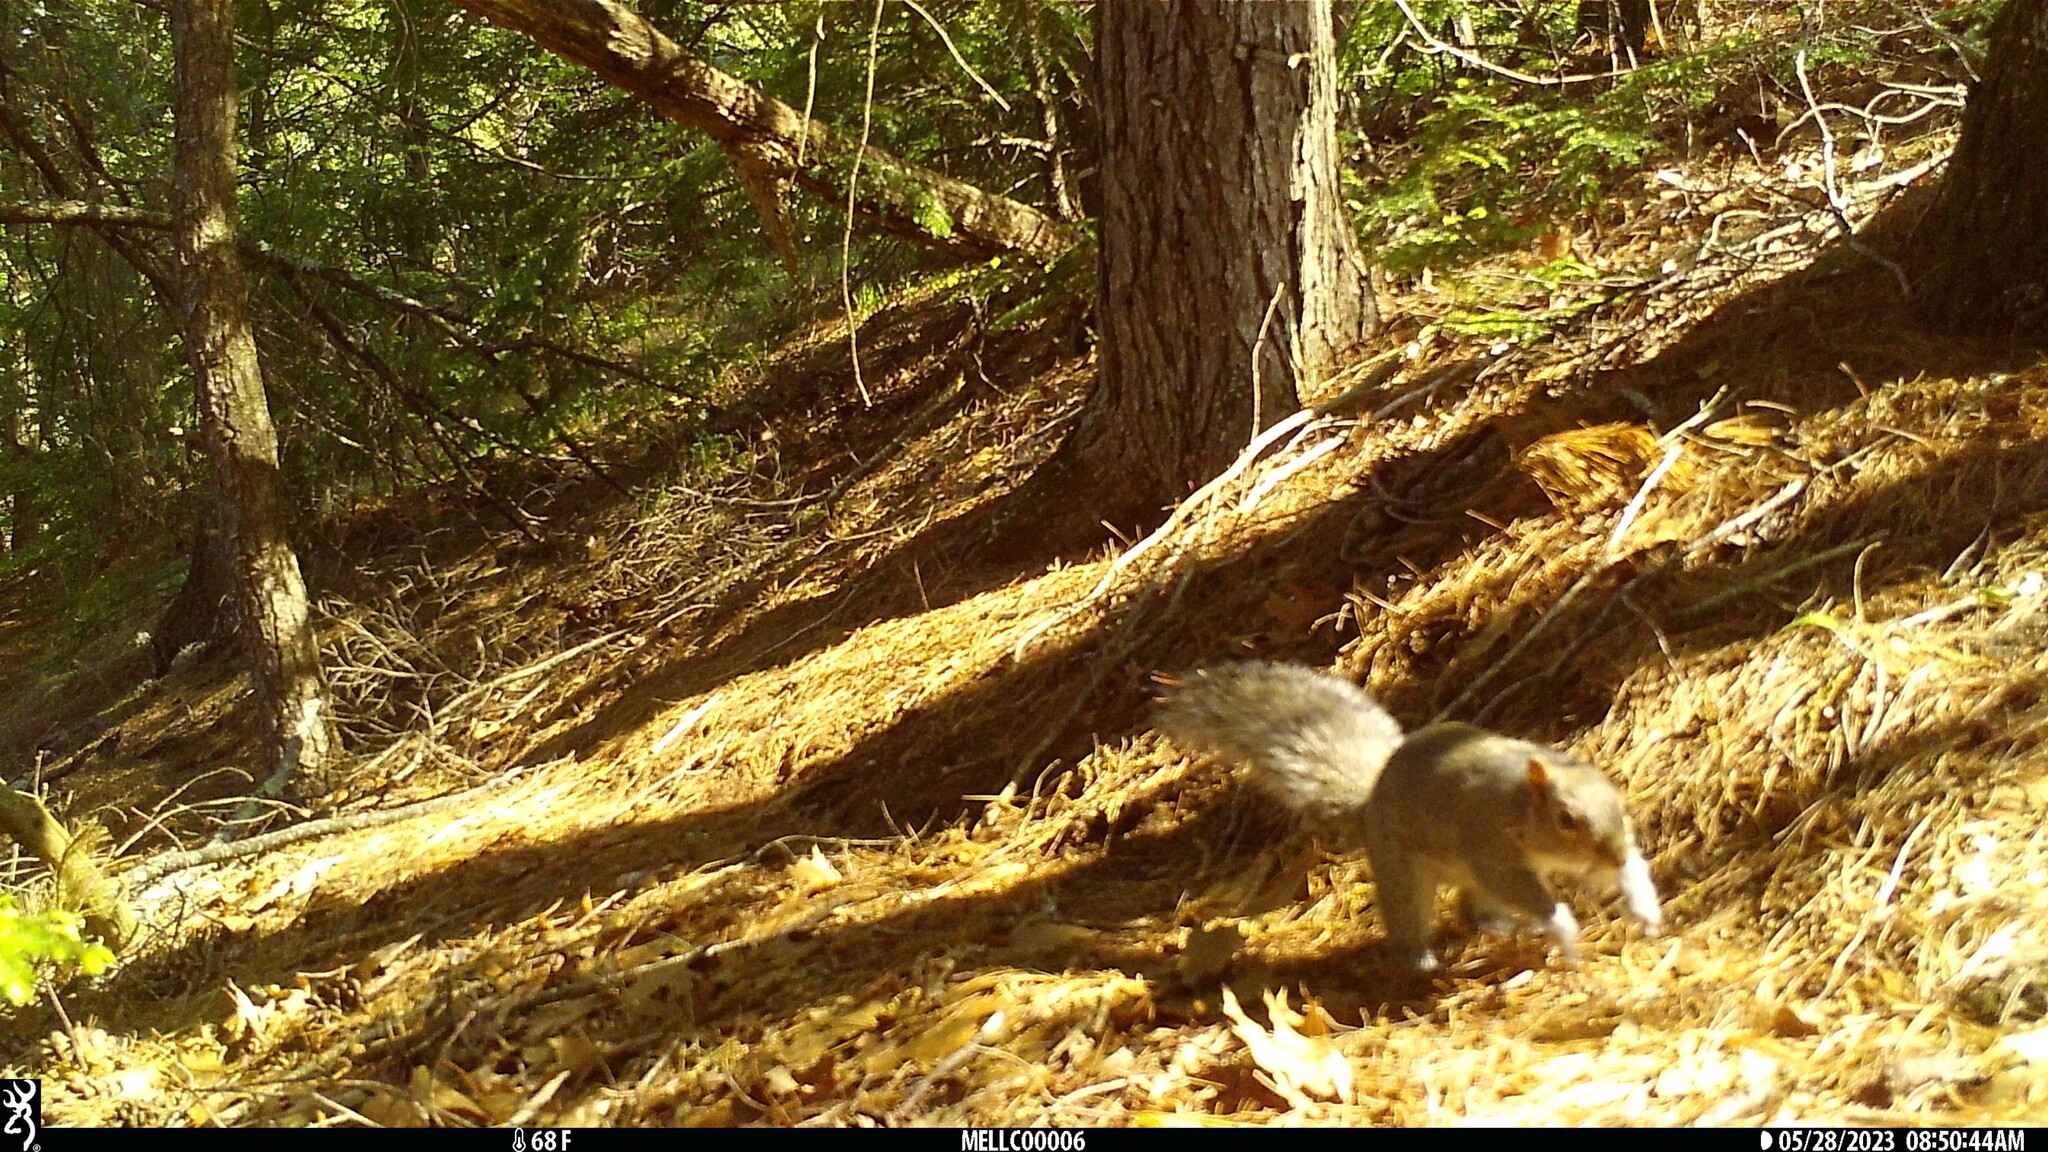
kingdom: Animalia
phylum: Chordata
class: Mammalia
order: Rodentia
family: Sciuridae
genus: Sciurus
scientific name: Sciurus carolinensis
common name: Eastern gray squirrel
